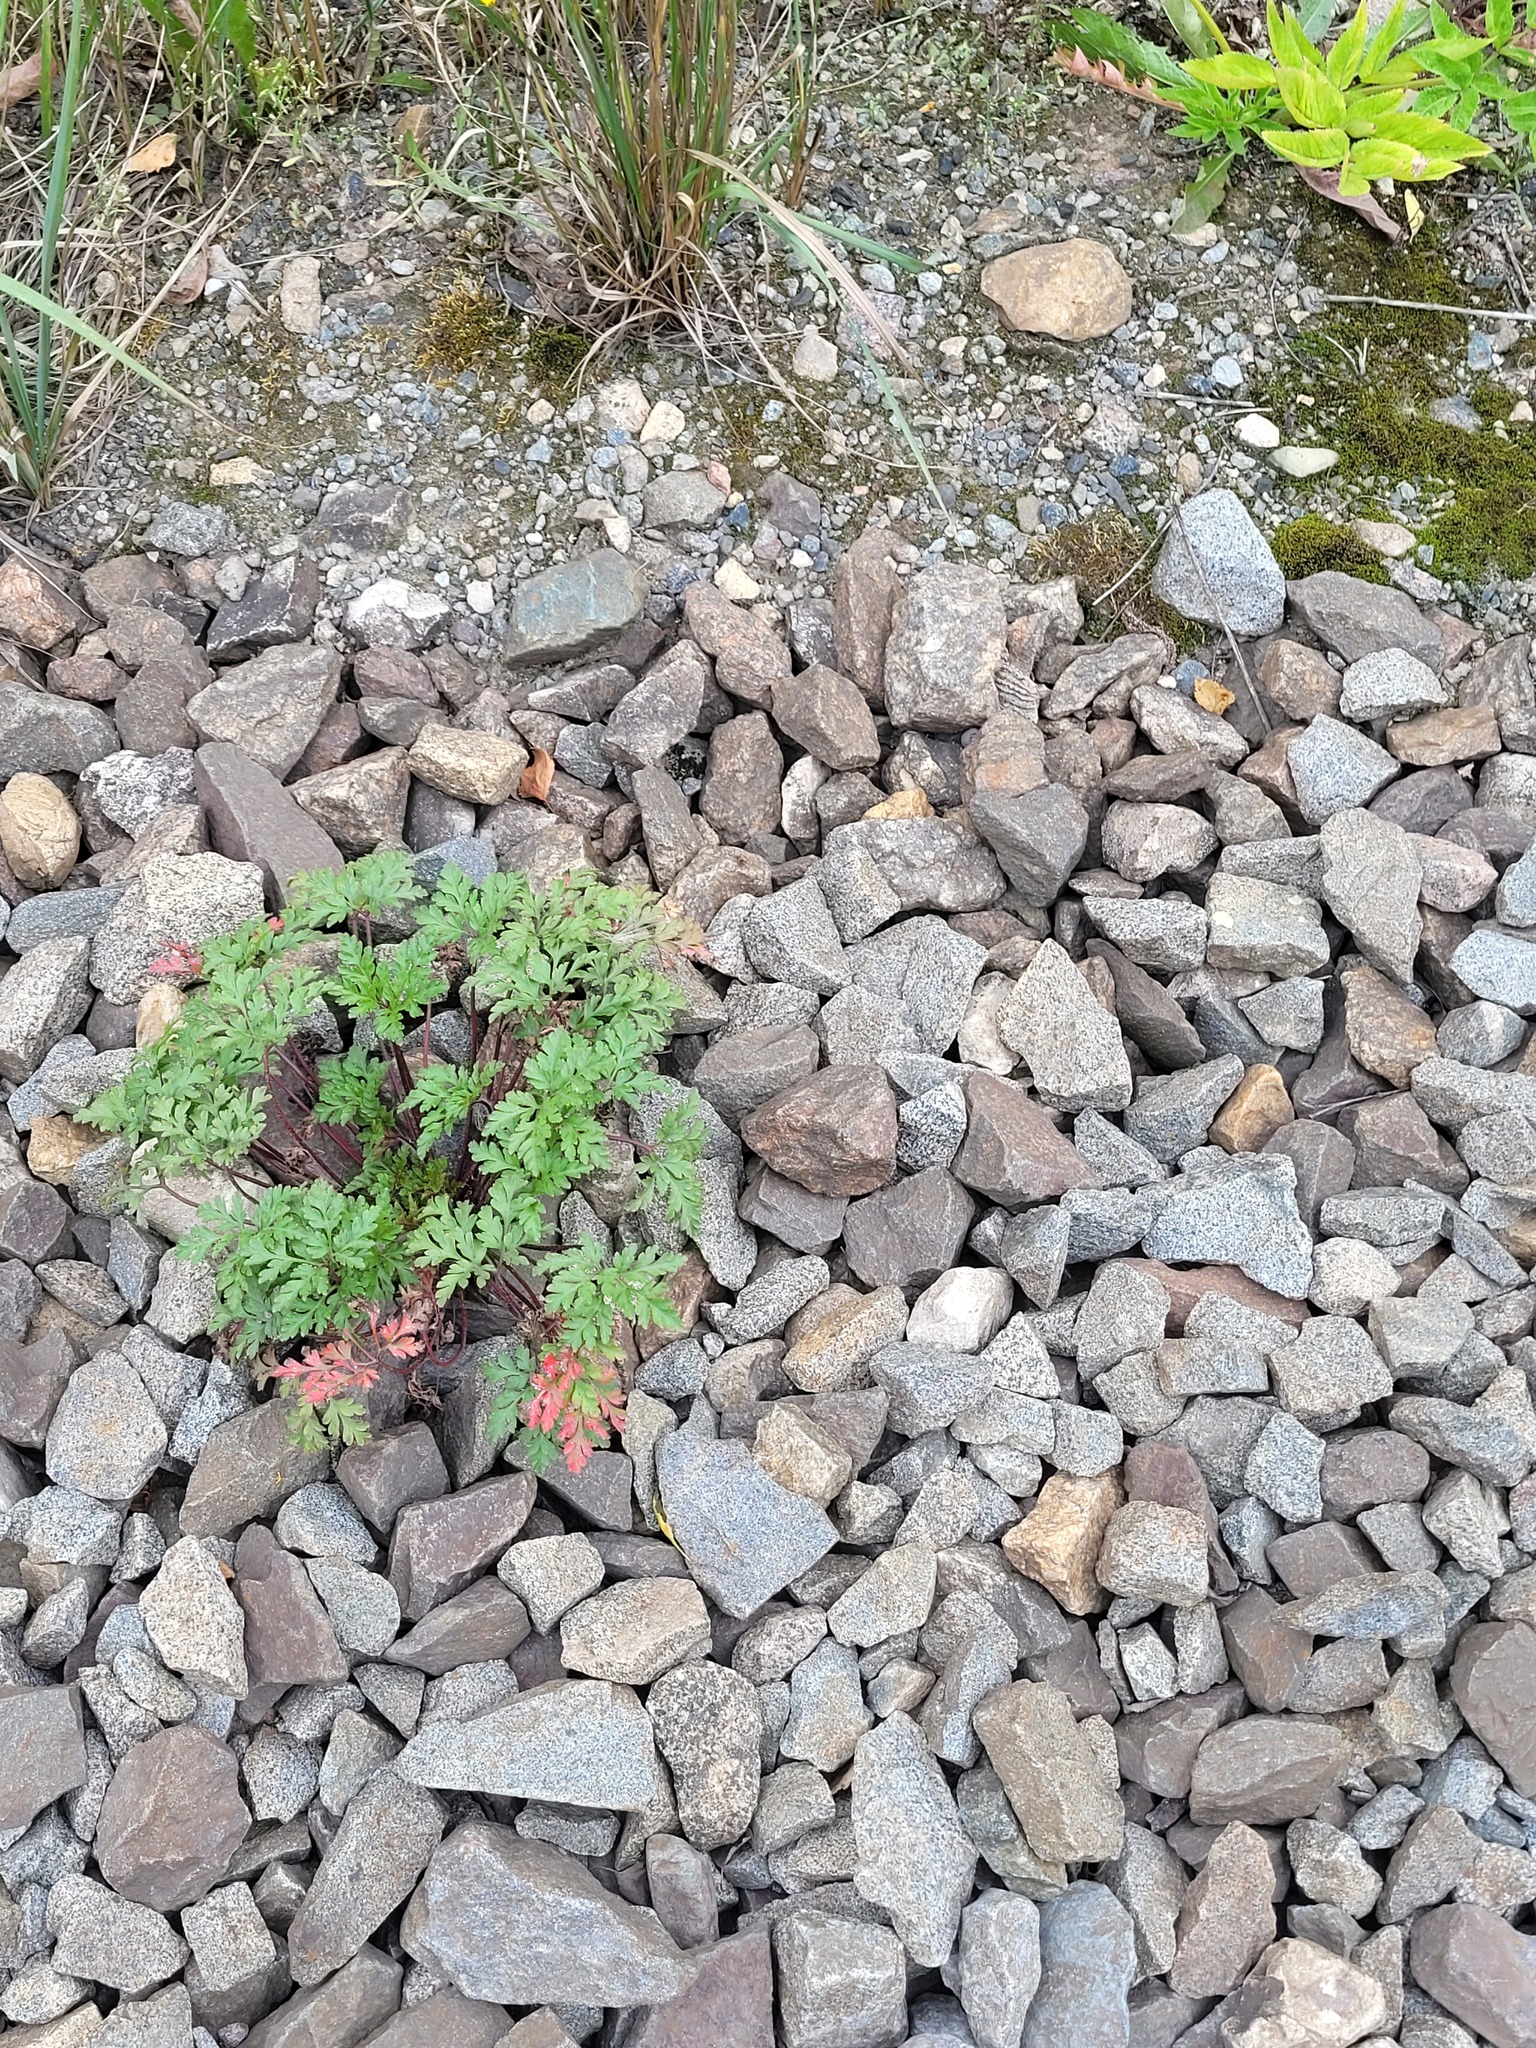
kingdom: Plantae
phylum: Tracheophyta
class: Magnoliopsida
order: Geraniales
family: Geraniaceae
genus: Geranium
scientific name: Geranium robertianum
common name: Herb-robert
